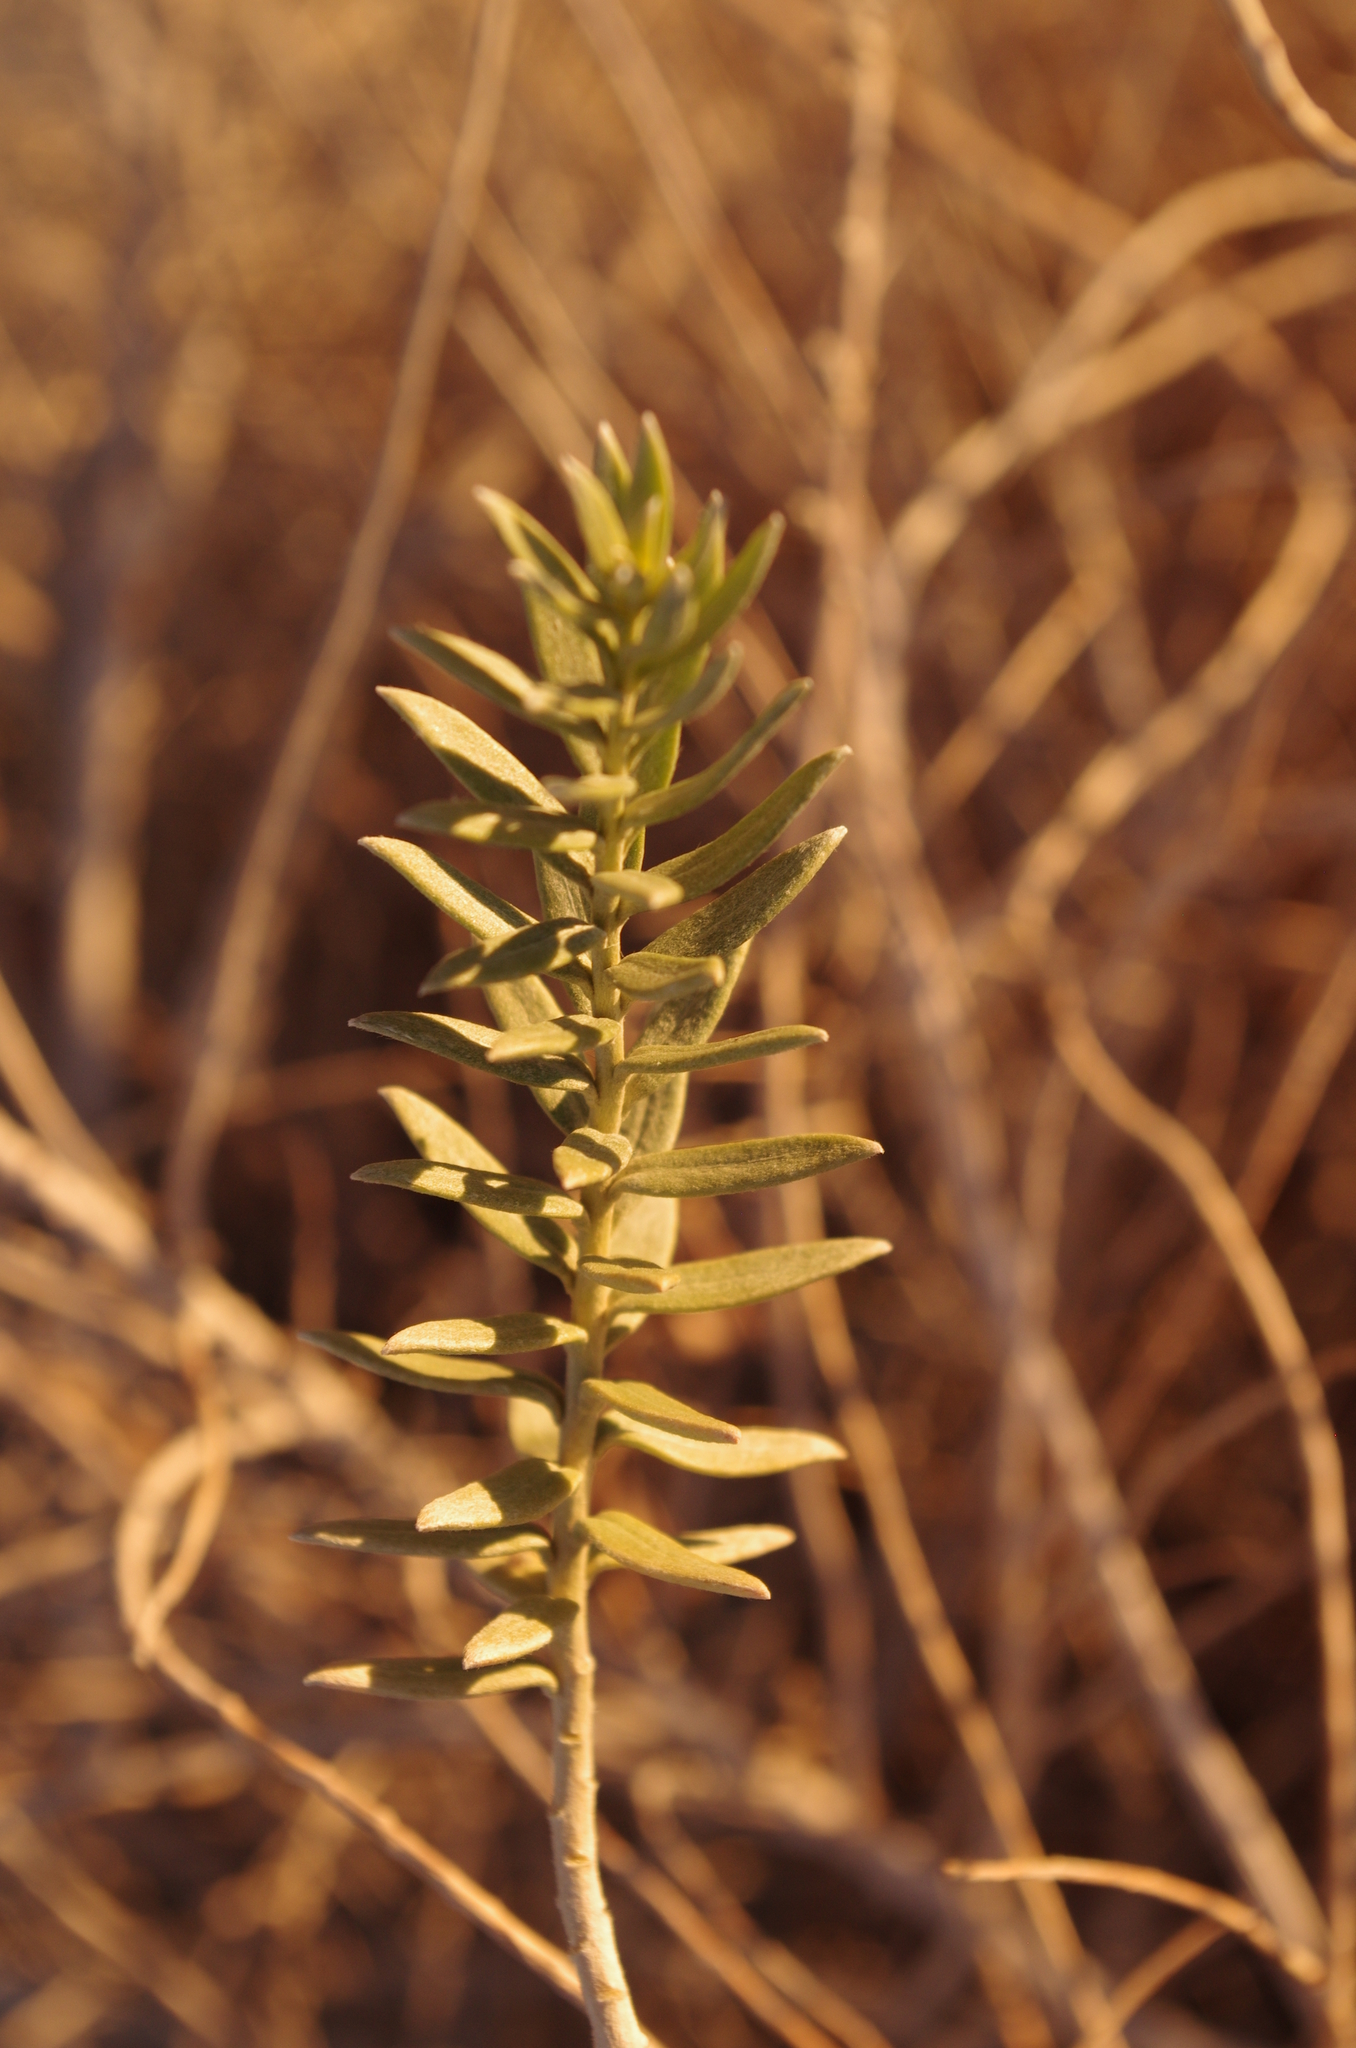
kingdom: Plantae
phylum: Tracheophyta
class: Magnoliopsida
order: Asterales
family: Asteraceae
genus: Pluchea
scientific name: Pluchea sericea
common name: Arrow-weed
